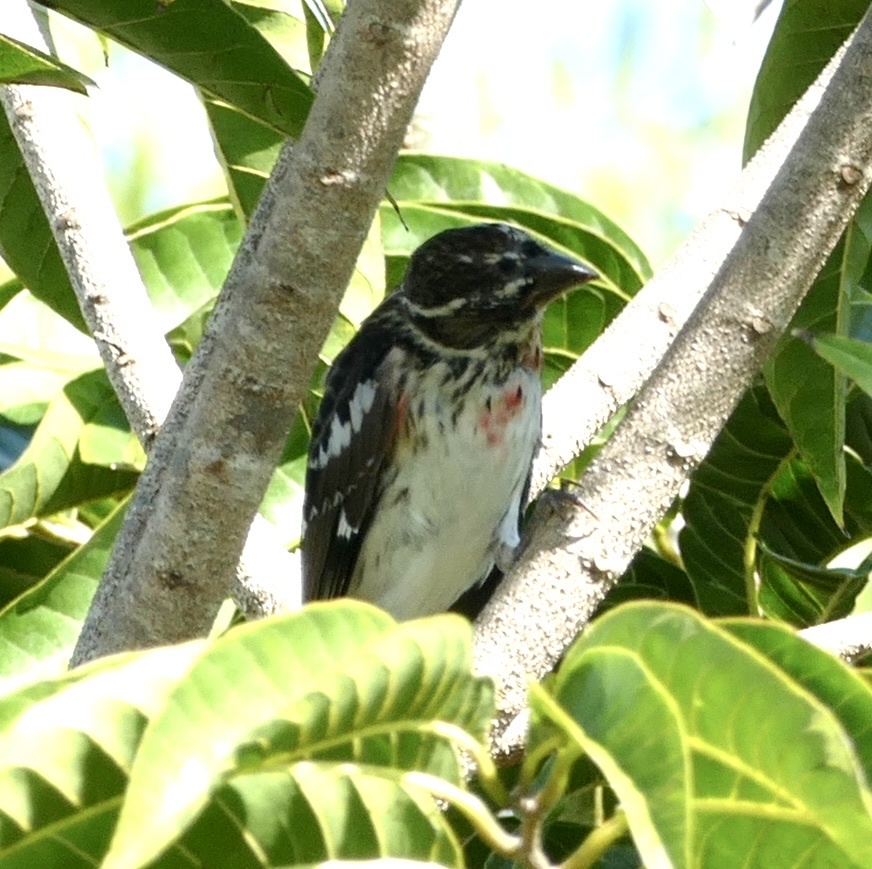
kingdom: Animalia
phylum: Chordata
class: Aves
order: Passeriformes
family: Cardinalidae
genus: Pheucticus
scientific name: Pheucticus ludovicianus
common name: Rose-breasted grosbeak
